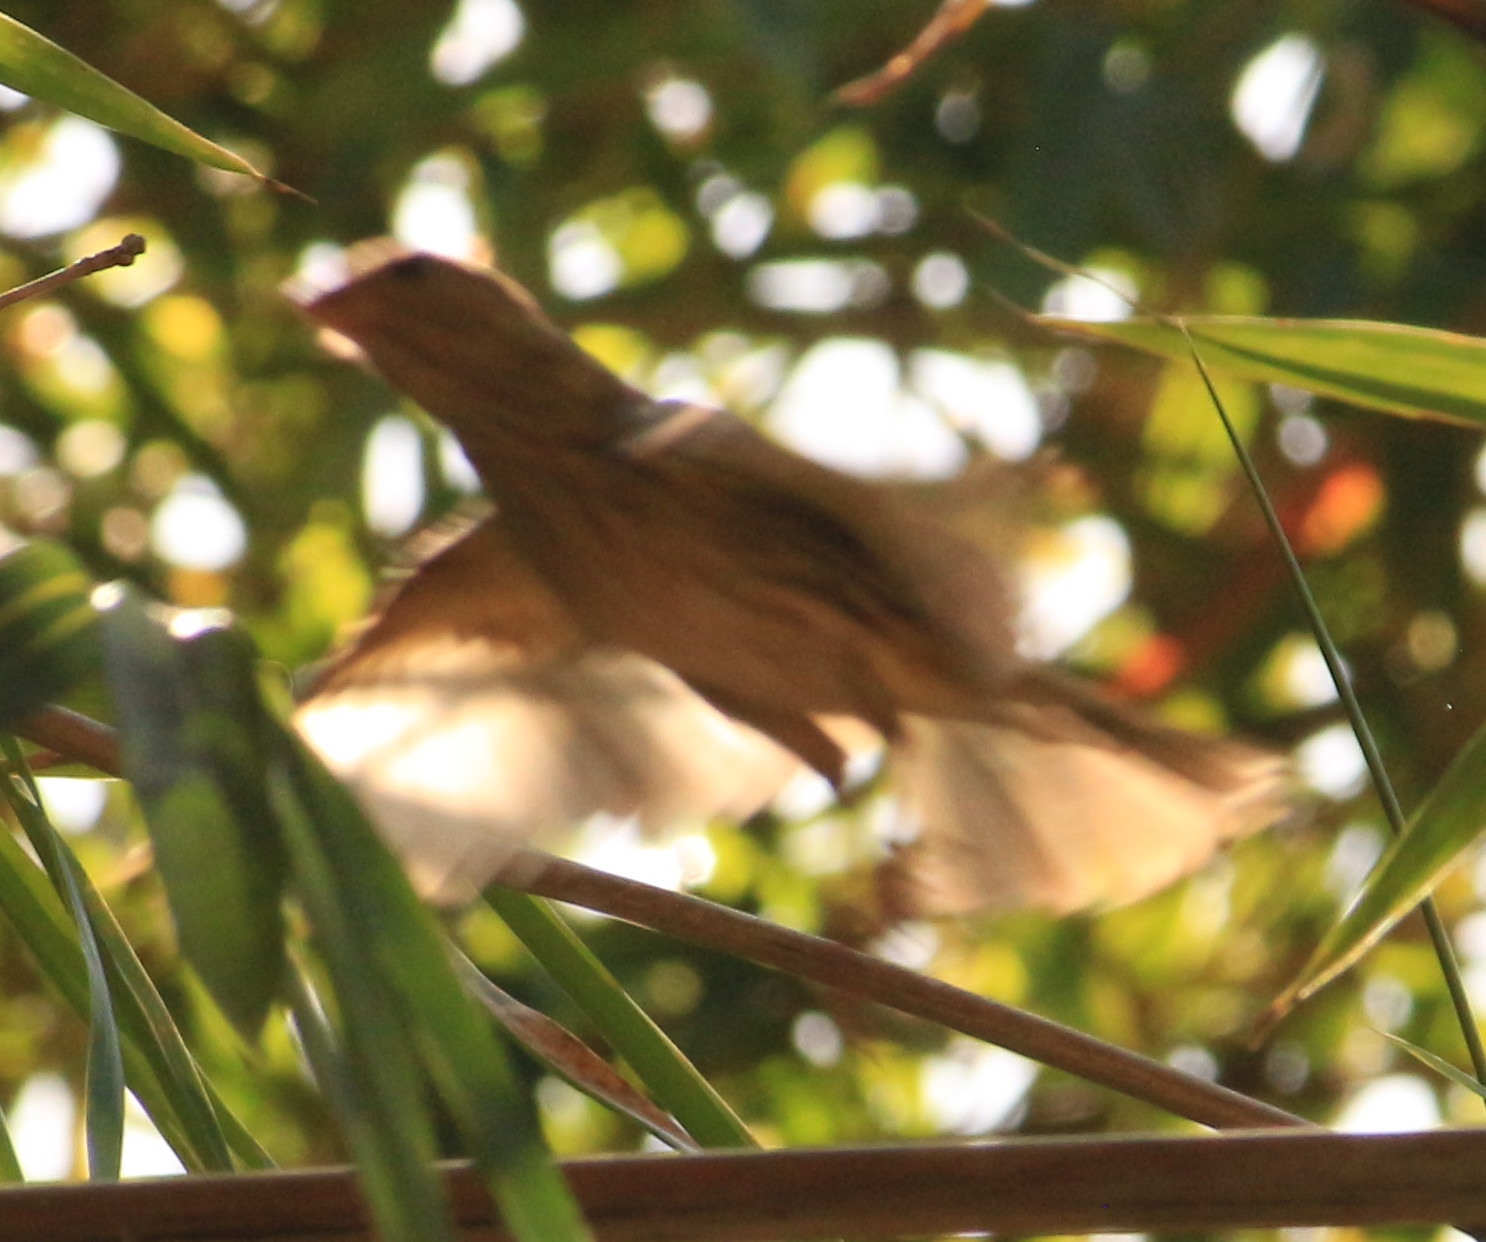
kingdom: Animalia
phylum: Chordata
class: Aves
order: Passeriformes
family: Thraupidae
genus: Sicalis
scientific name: Sicalis flaveola
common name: Saffron finch
